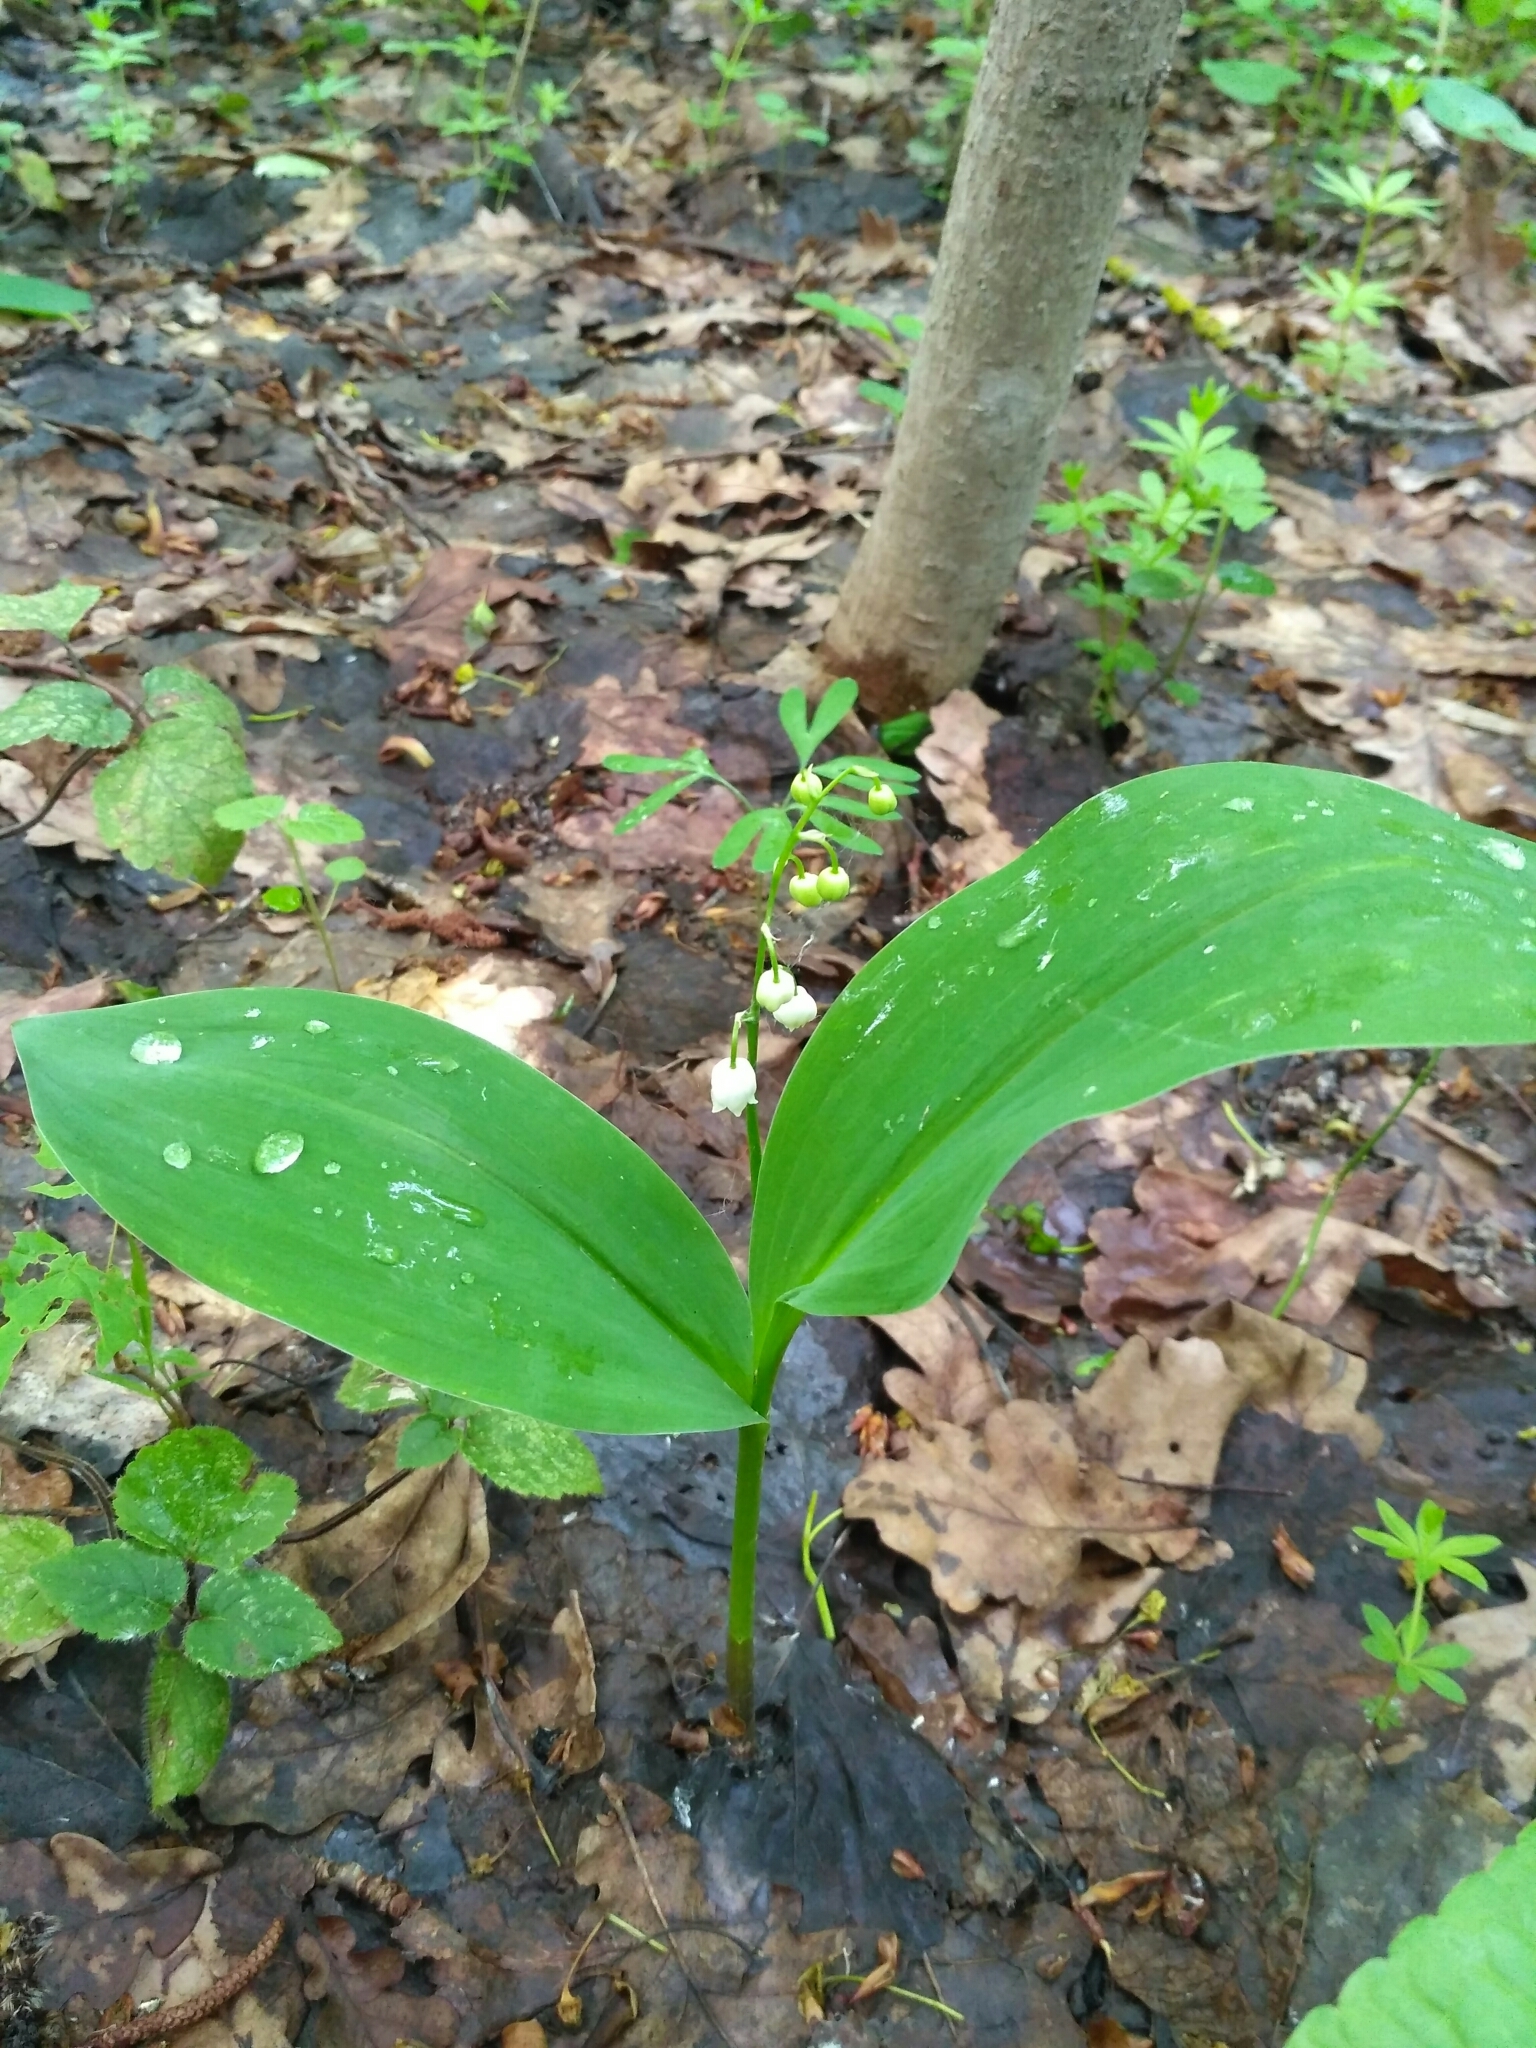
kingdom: Plantae
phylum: Tracheophyta
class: Liliopsida
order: Asparagales
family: Asparagaceae
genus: Convallaria
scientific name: Convallaria majalis
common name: Lily-of-the-valley
